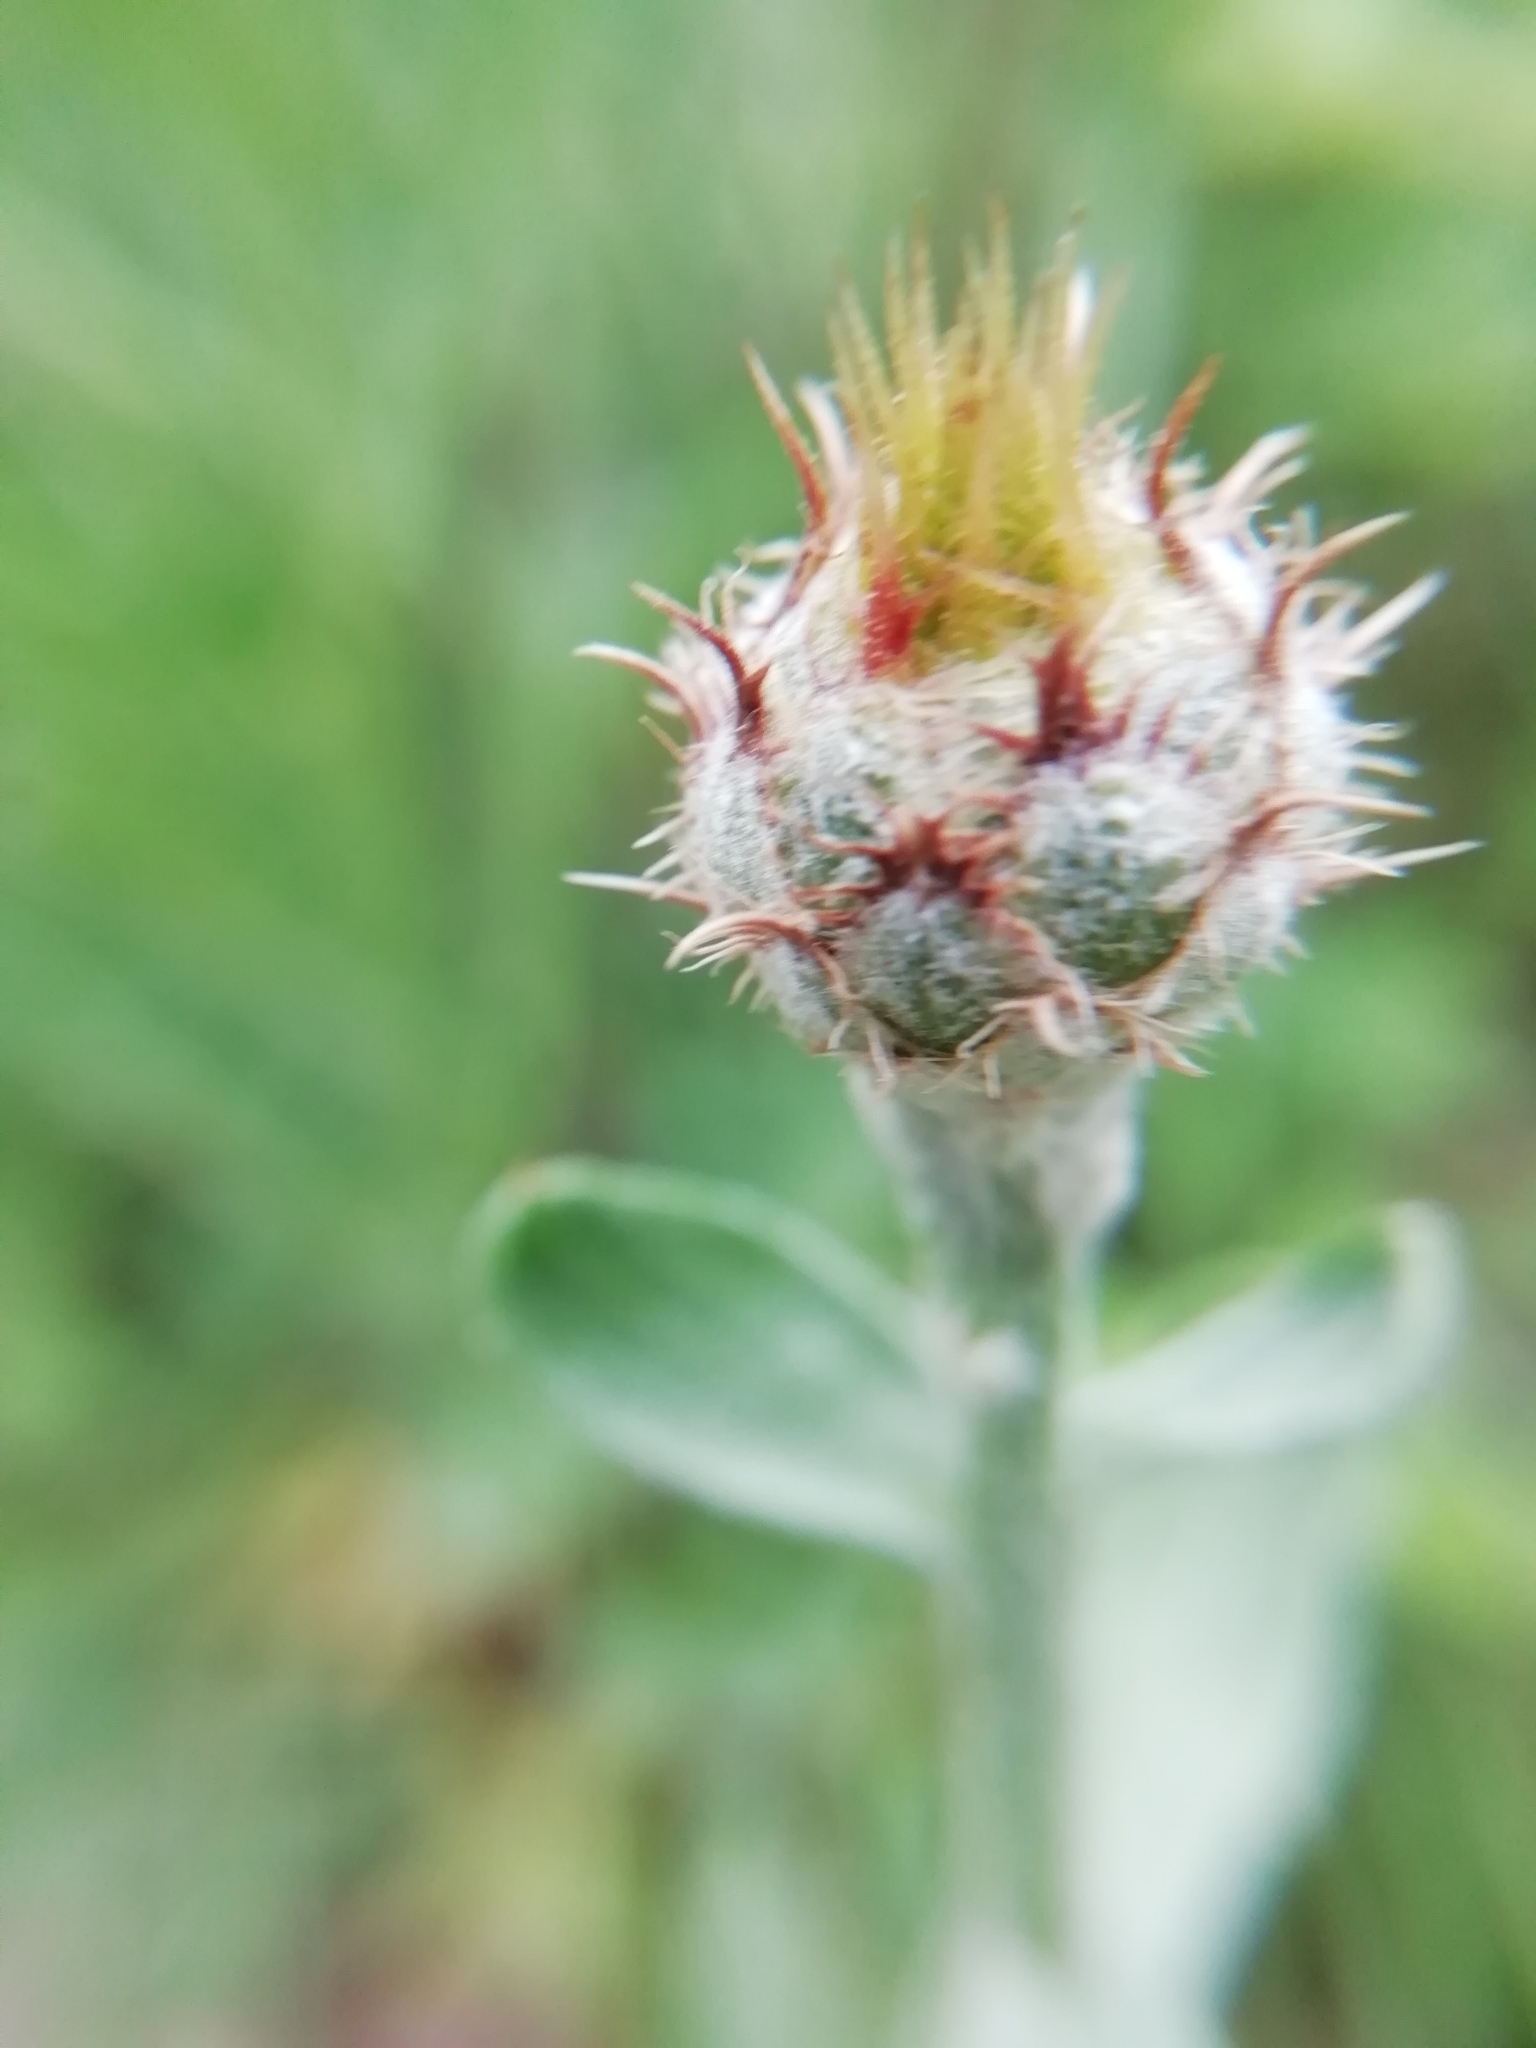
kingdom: Plantae
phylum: Tracheophyta
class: Magnoliopsida
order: Asterales
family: Asteraceae
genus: Centaurea
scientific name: Centaurea collina
